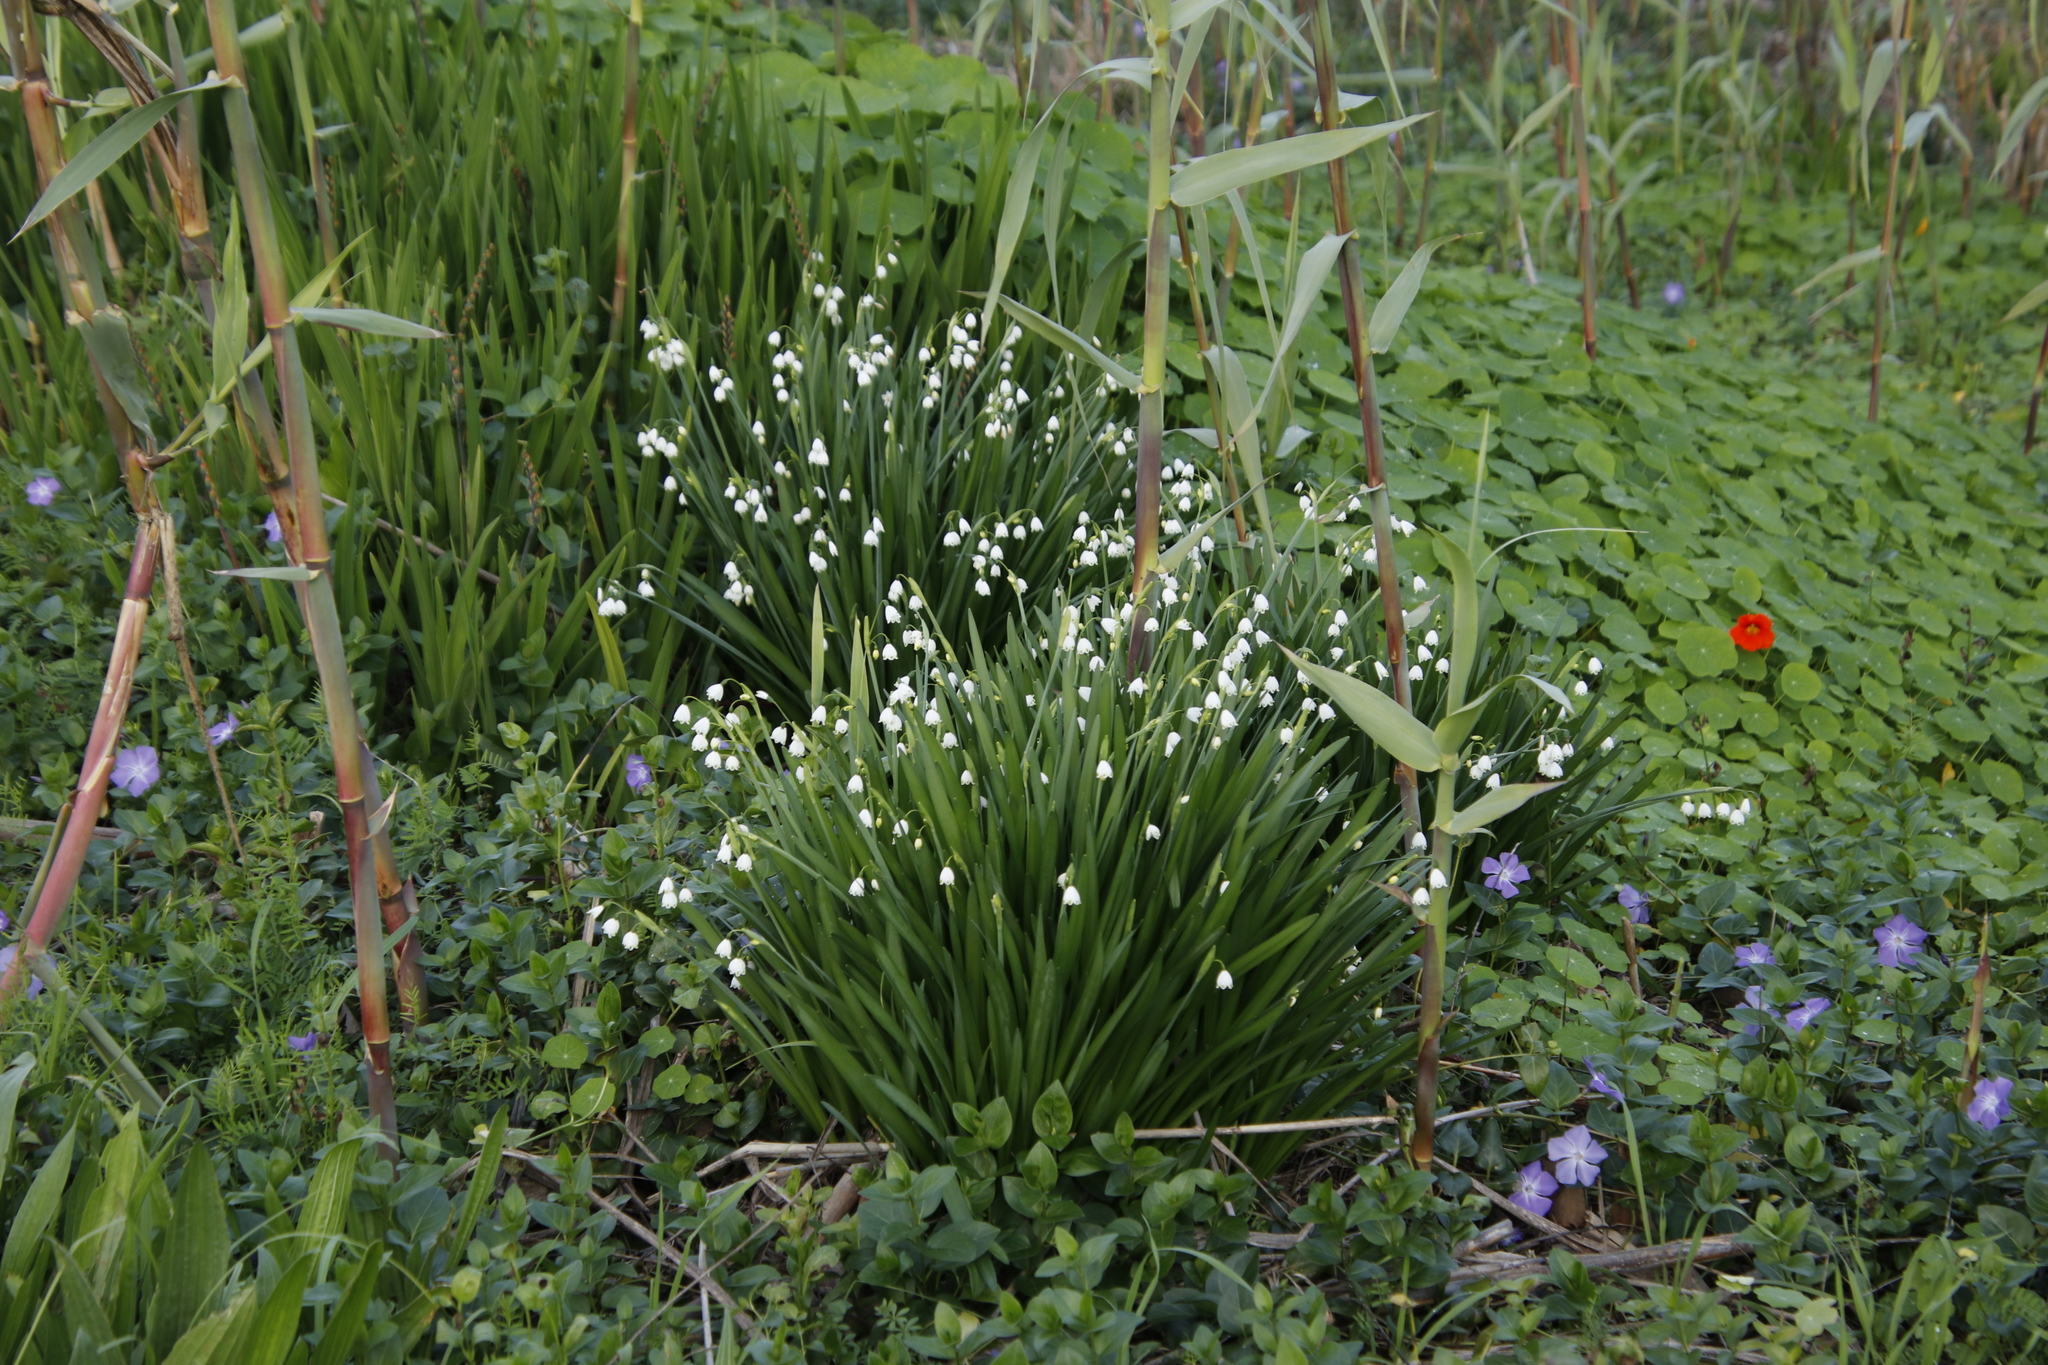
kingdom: Plantae
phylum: Tracheophyta
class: Magnoliopsida
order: Brassicales
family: Tropaeolaceae
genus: Tropaeolum
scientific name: Tropaeolum majus
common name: Nasturtium
